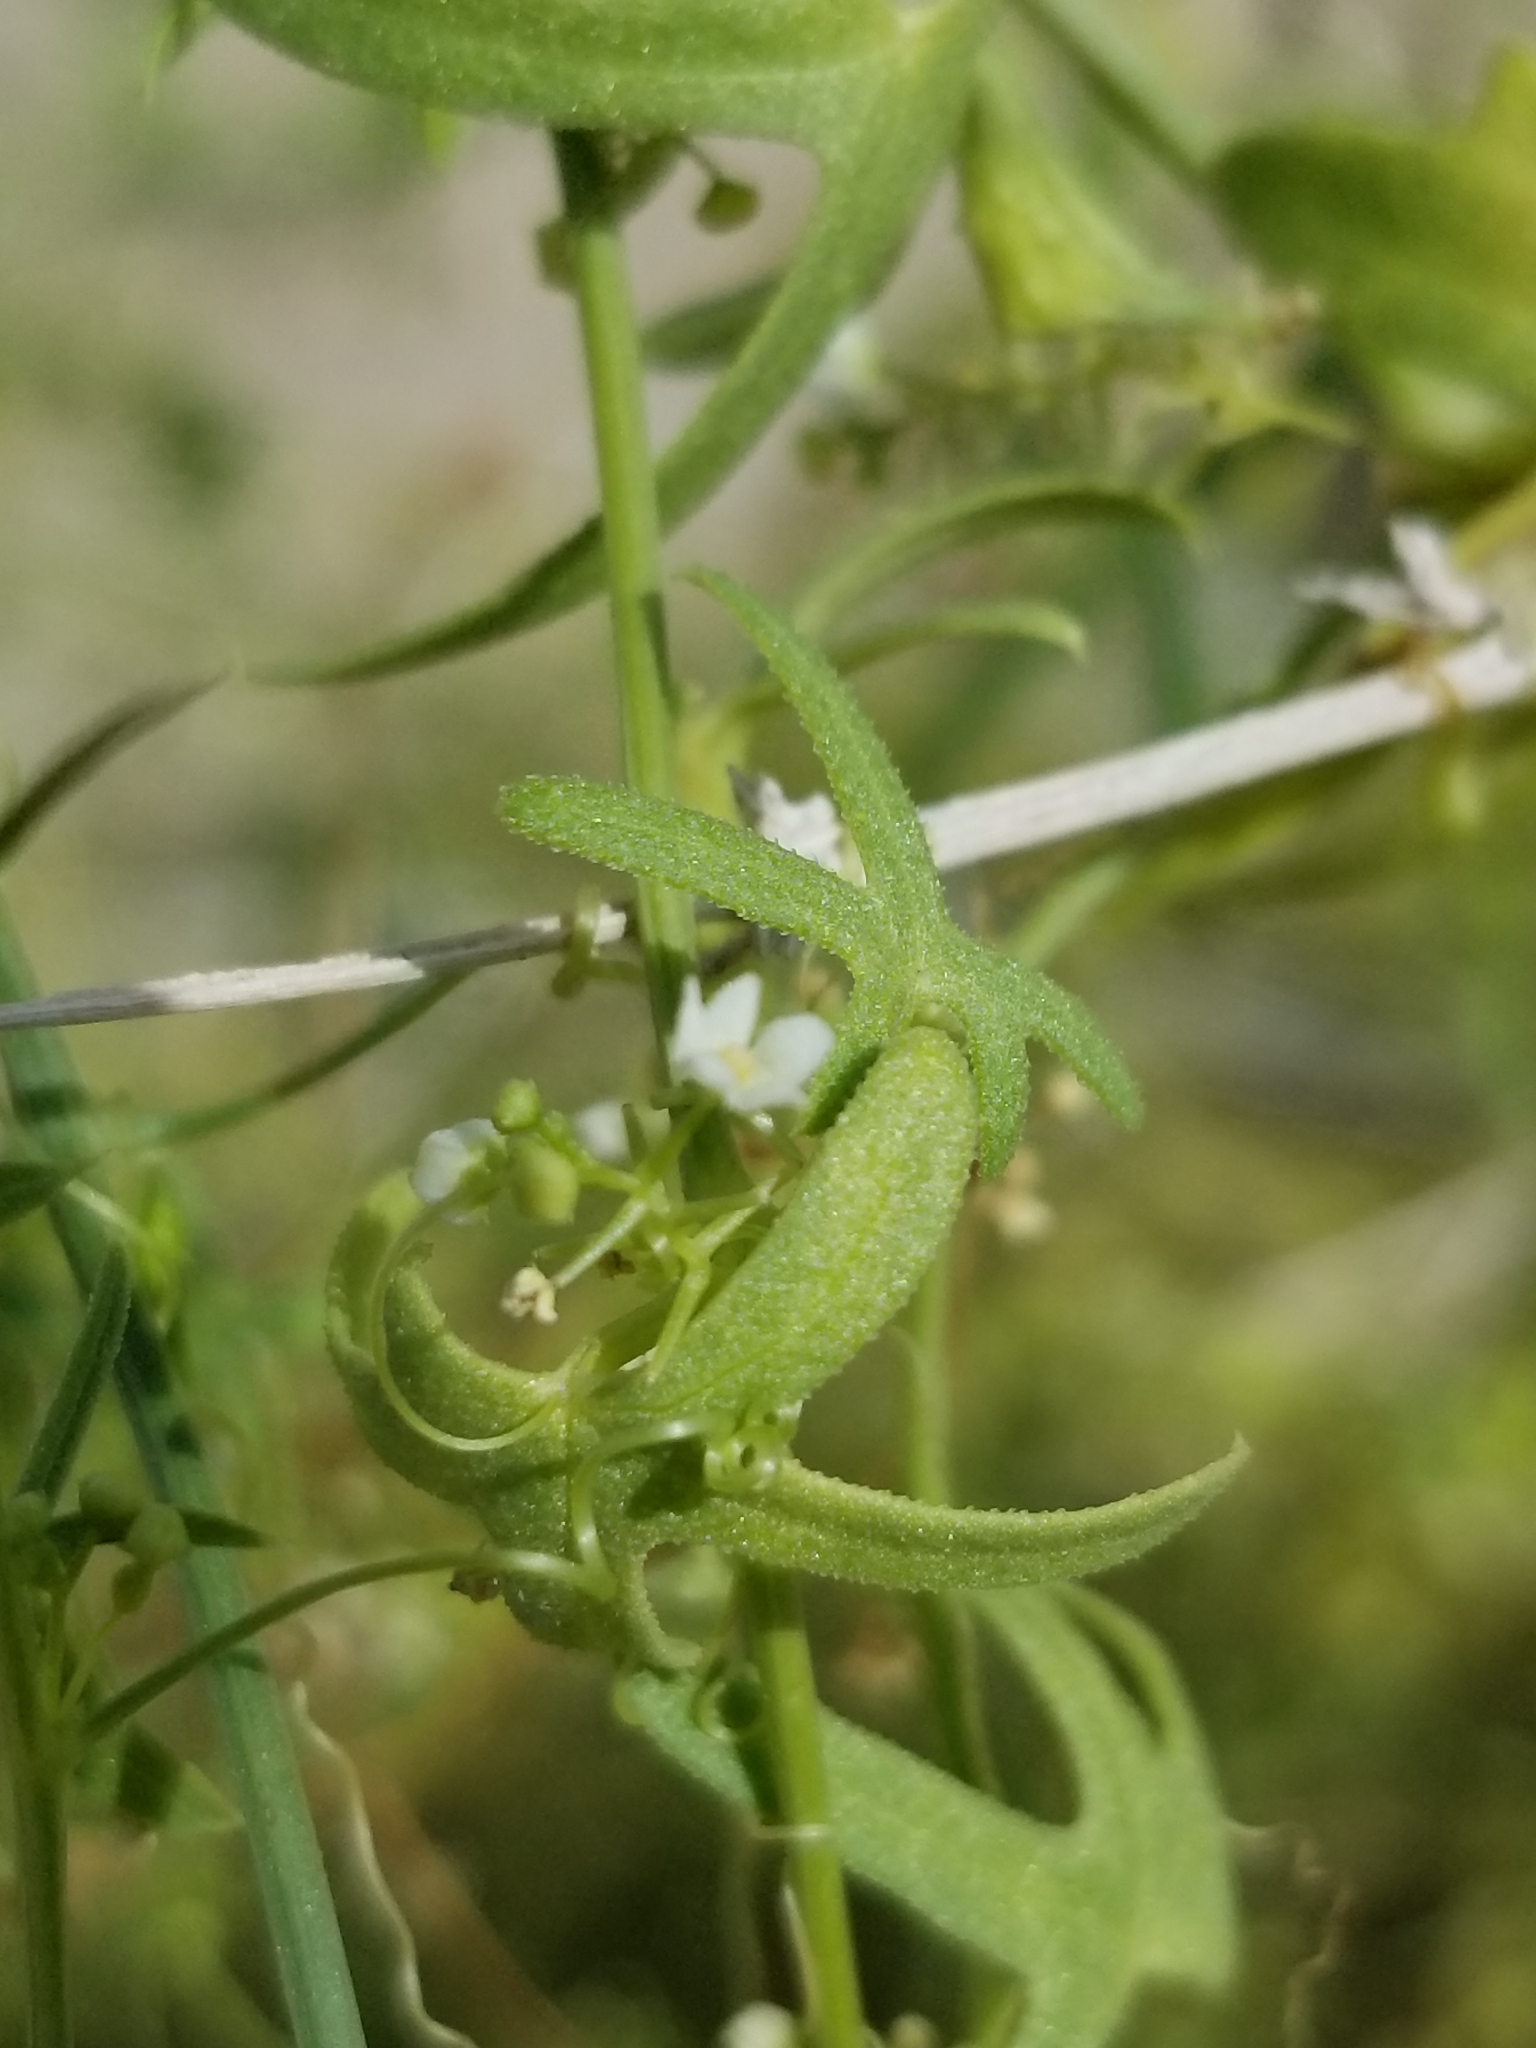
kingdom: Plantae
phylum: Tracheophyta
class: Magnoliopsida
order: Cucurbitales
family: Cucurbitaceae
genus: Echinopepon
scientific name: Echinopepon bigelovii
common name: Desert starvine
